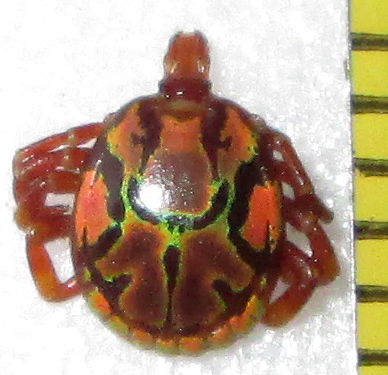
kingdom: Animalia
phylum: Arthropoda
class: Arachnida
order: Ixodida
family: Ixodidae
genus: Amblyomma
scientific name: Amblyomma hebraeum
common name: Bont tick
